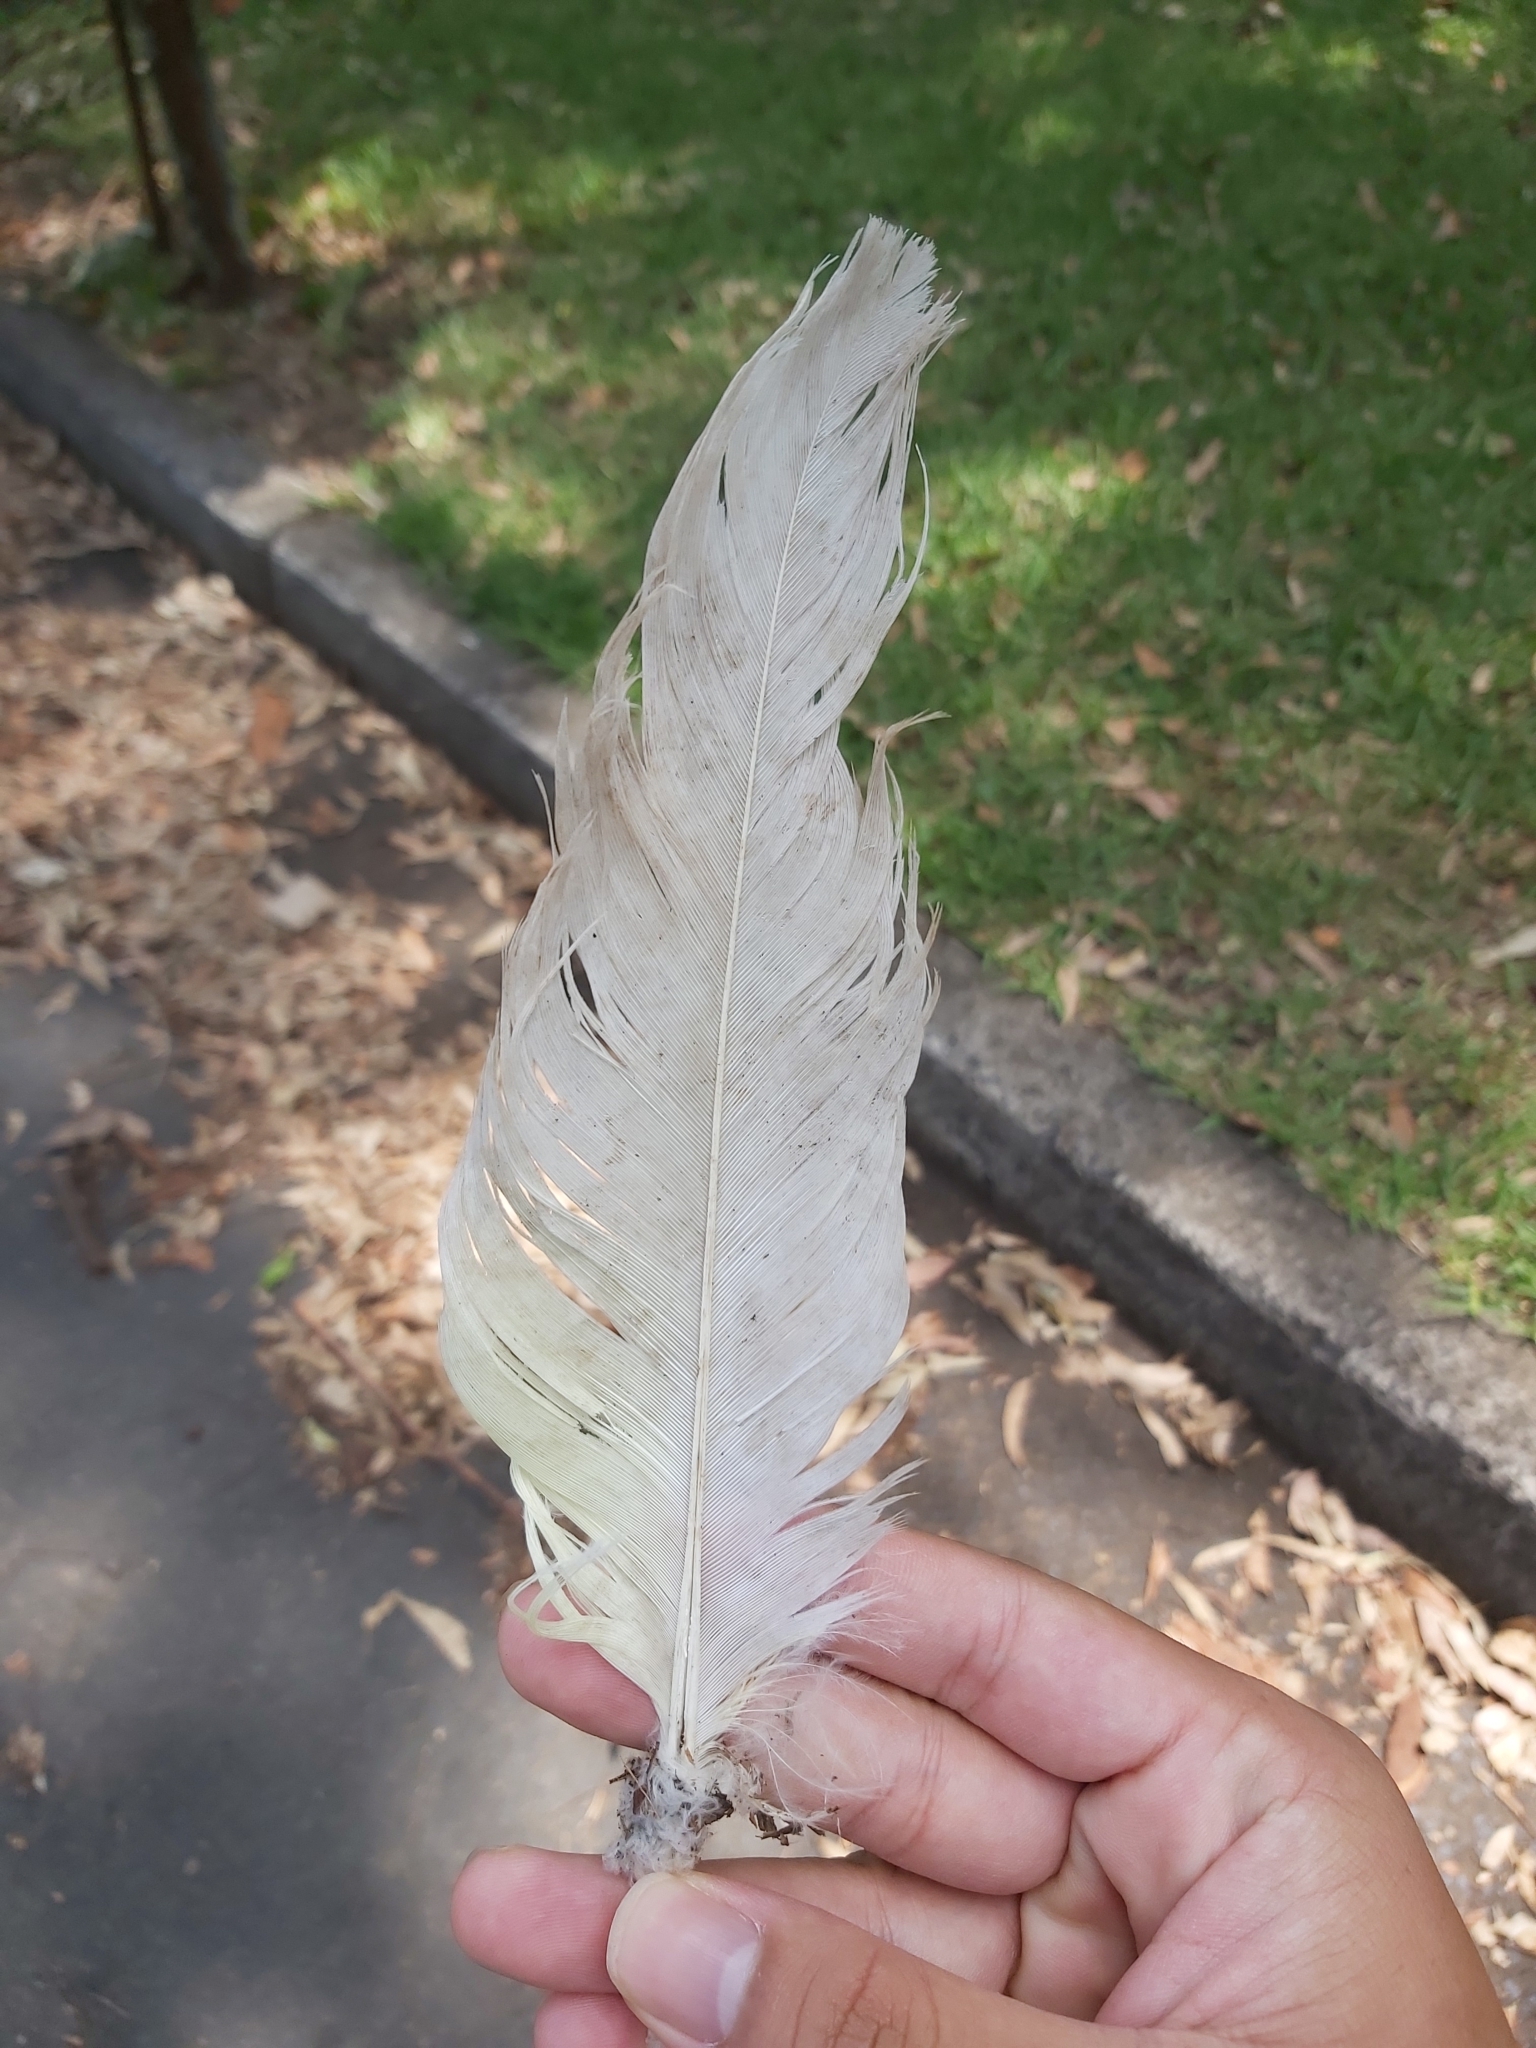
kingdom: Animalia
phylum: Chordata
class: Aves
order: Psittaciformes
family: Psittacidae
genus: Cacatua
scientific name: Cacatua galerita
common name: Sulphur-crested cockatoo
